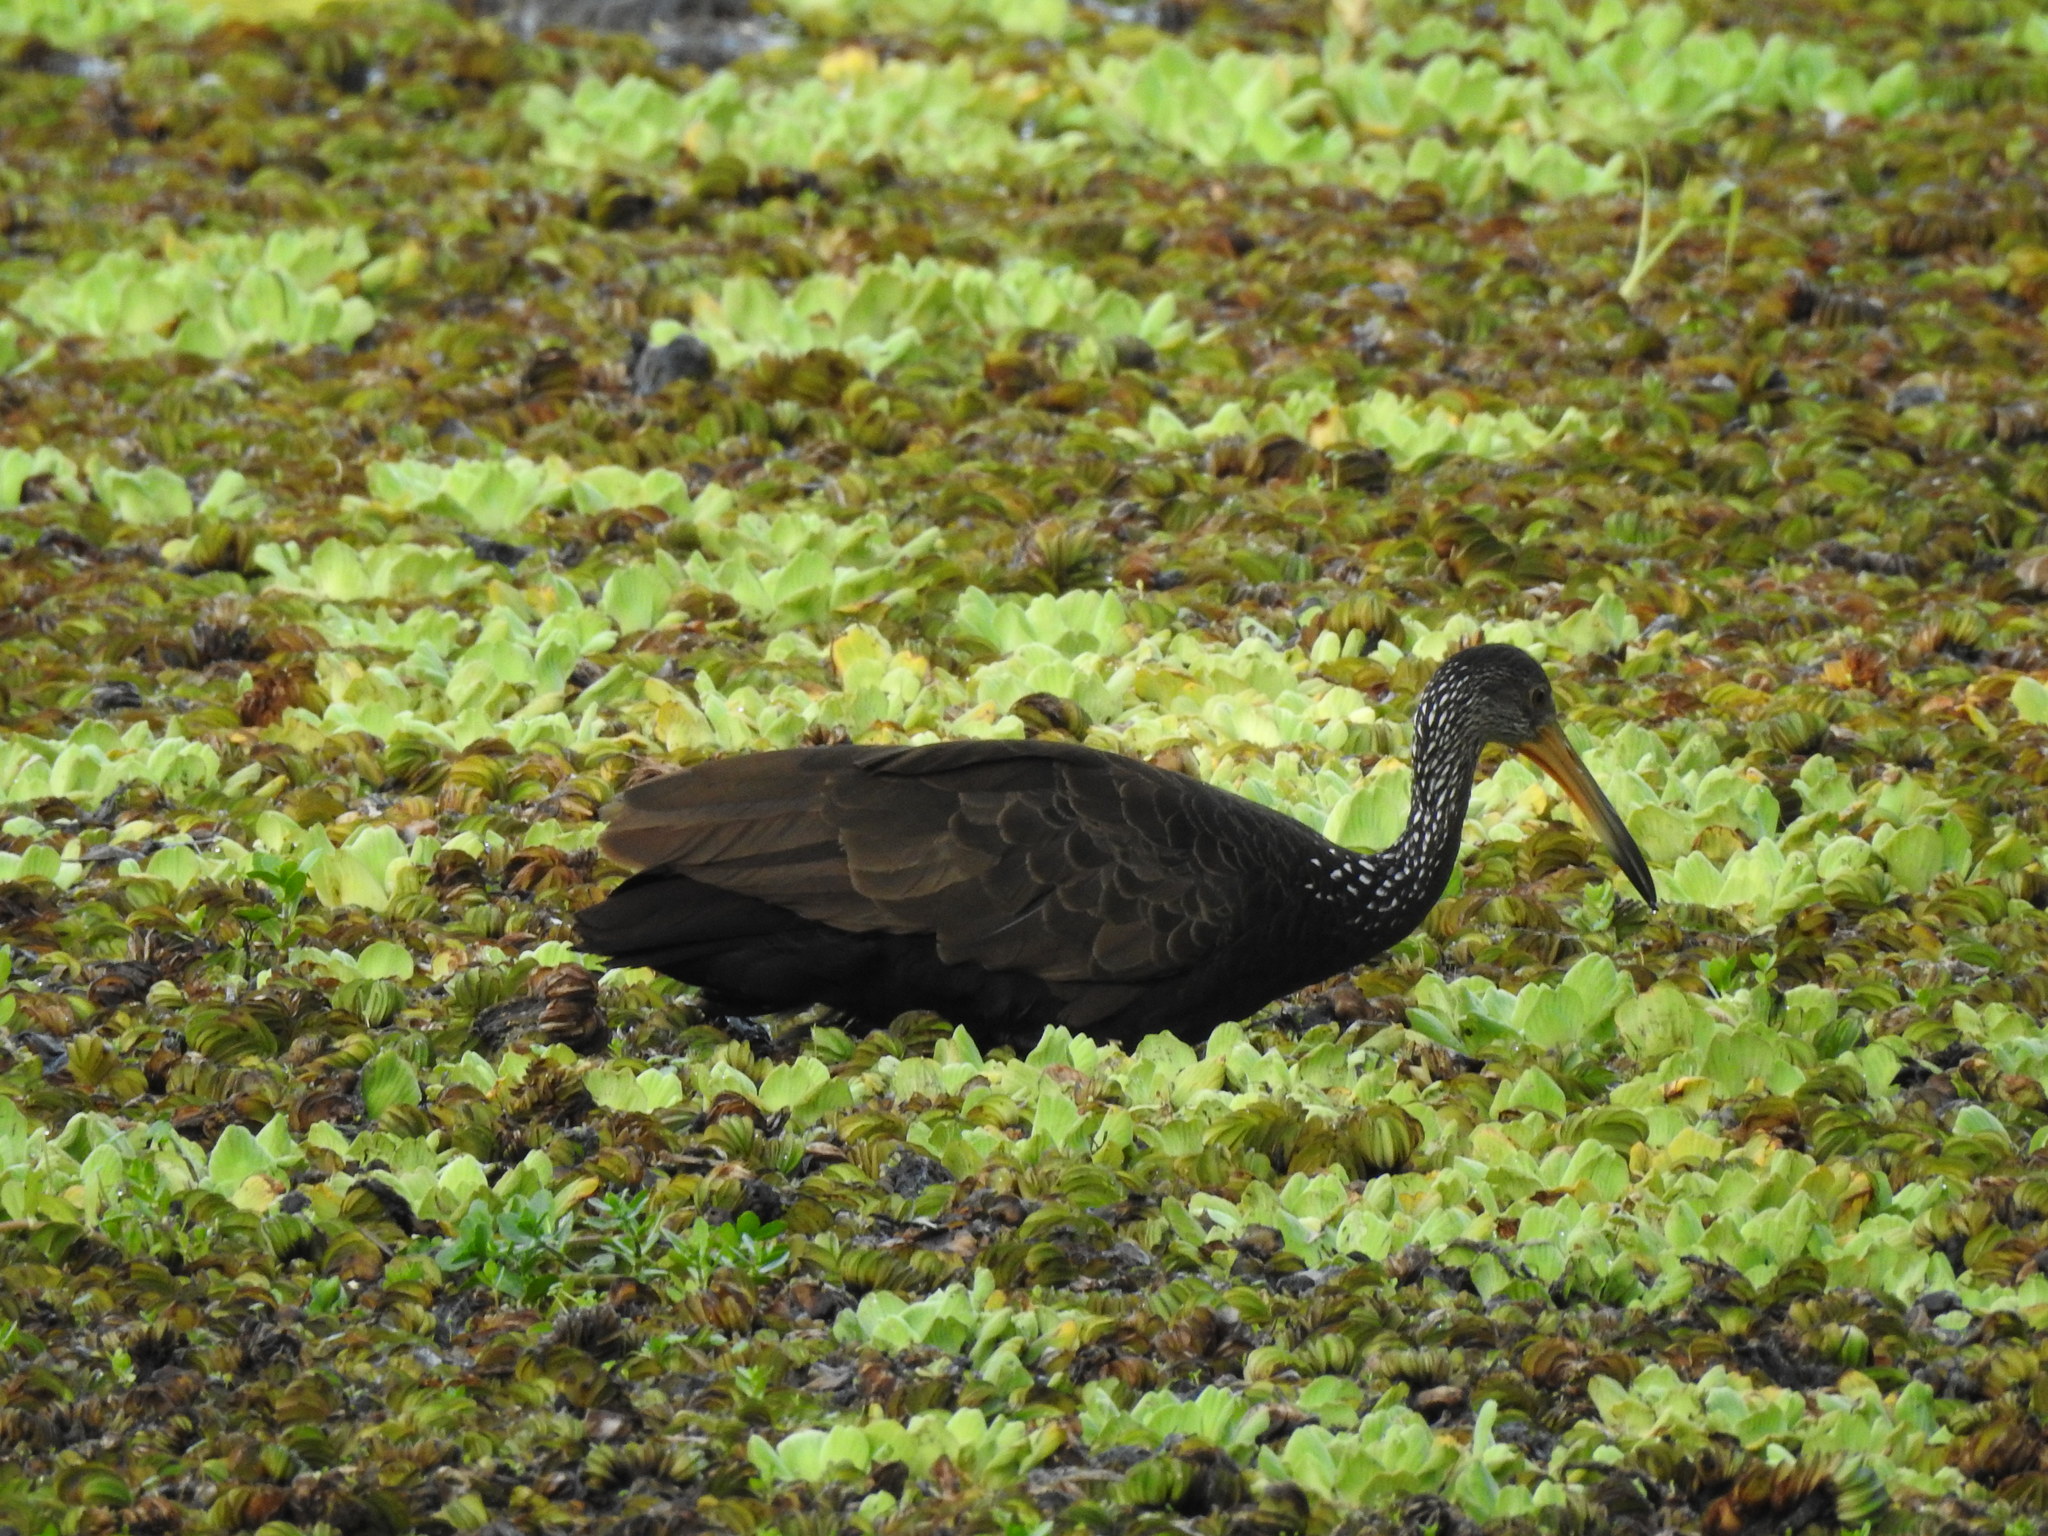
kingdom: Animalia
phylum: Chordata
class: Aves
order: Gruiformes
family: Aramidae
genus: Aramus
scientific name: Aramus guarauna
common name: Limpkin
